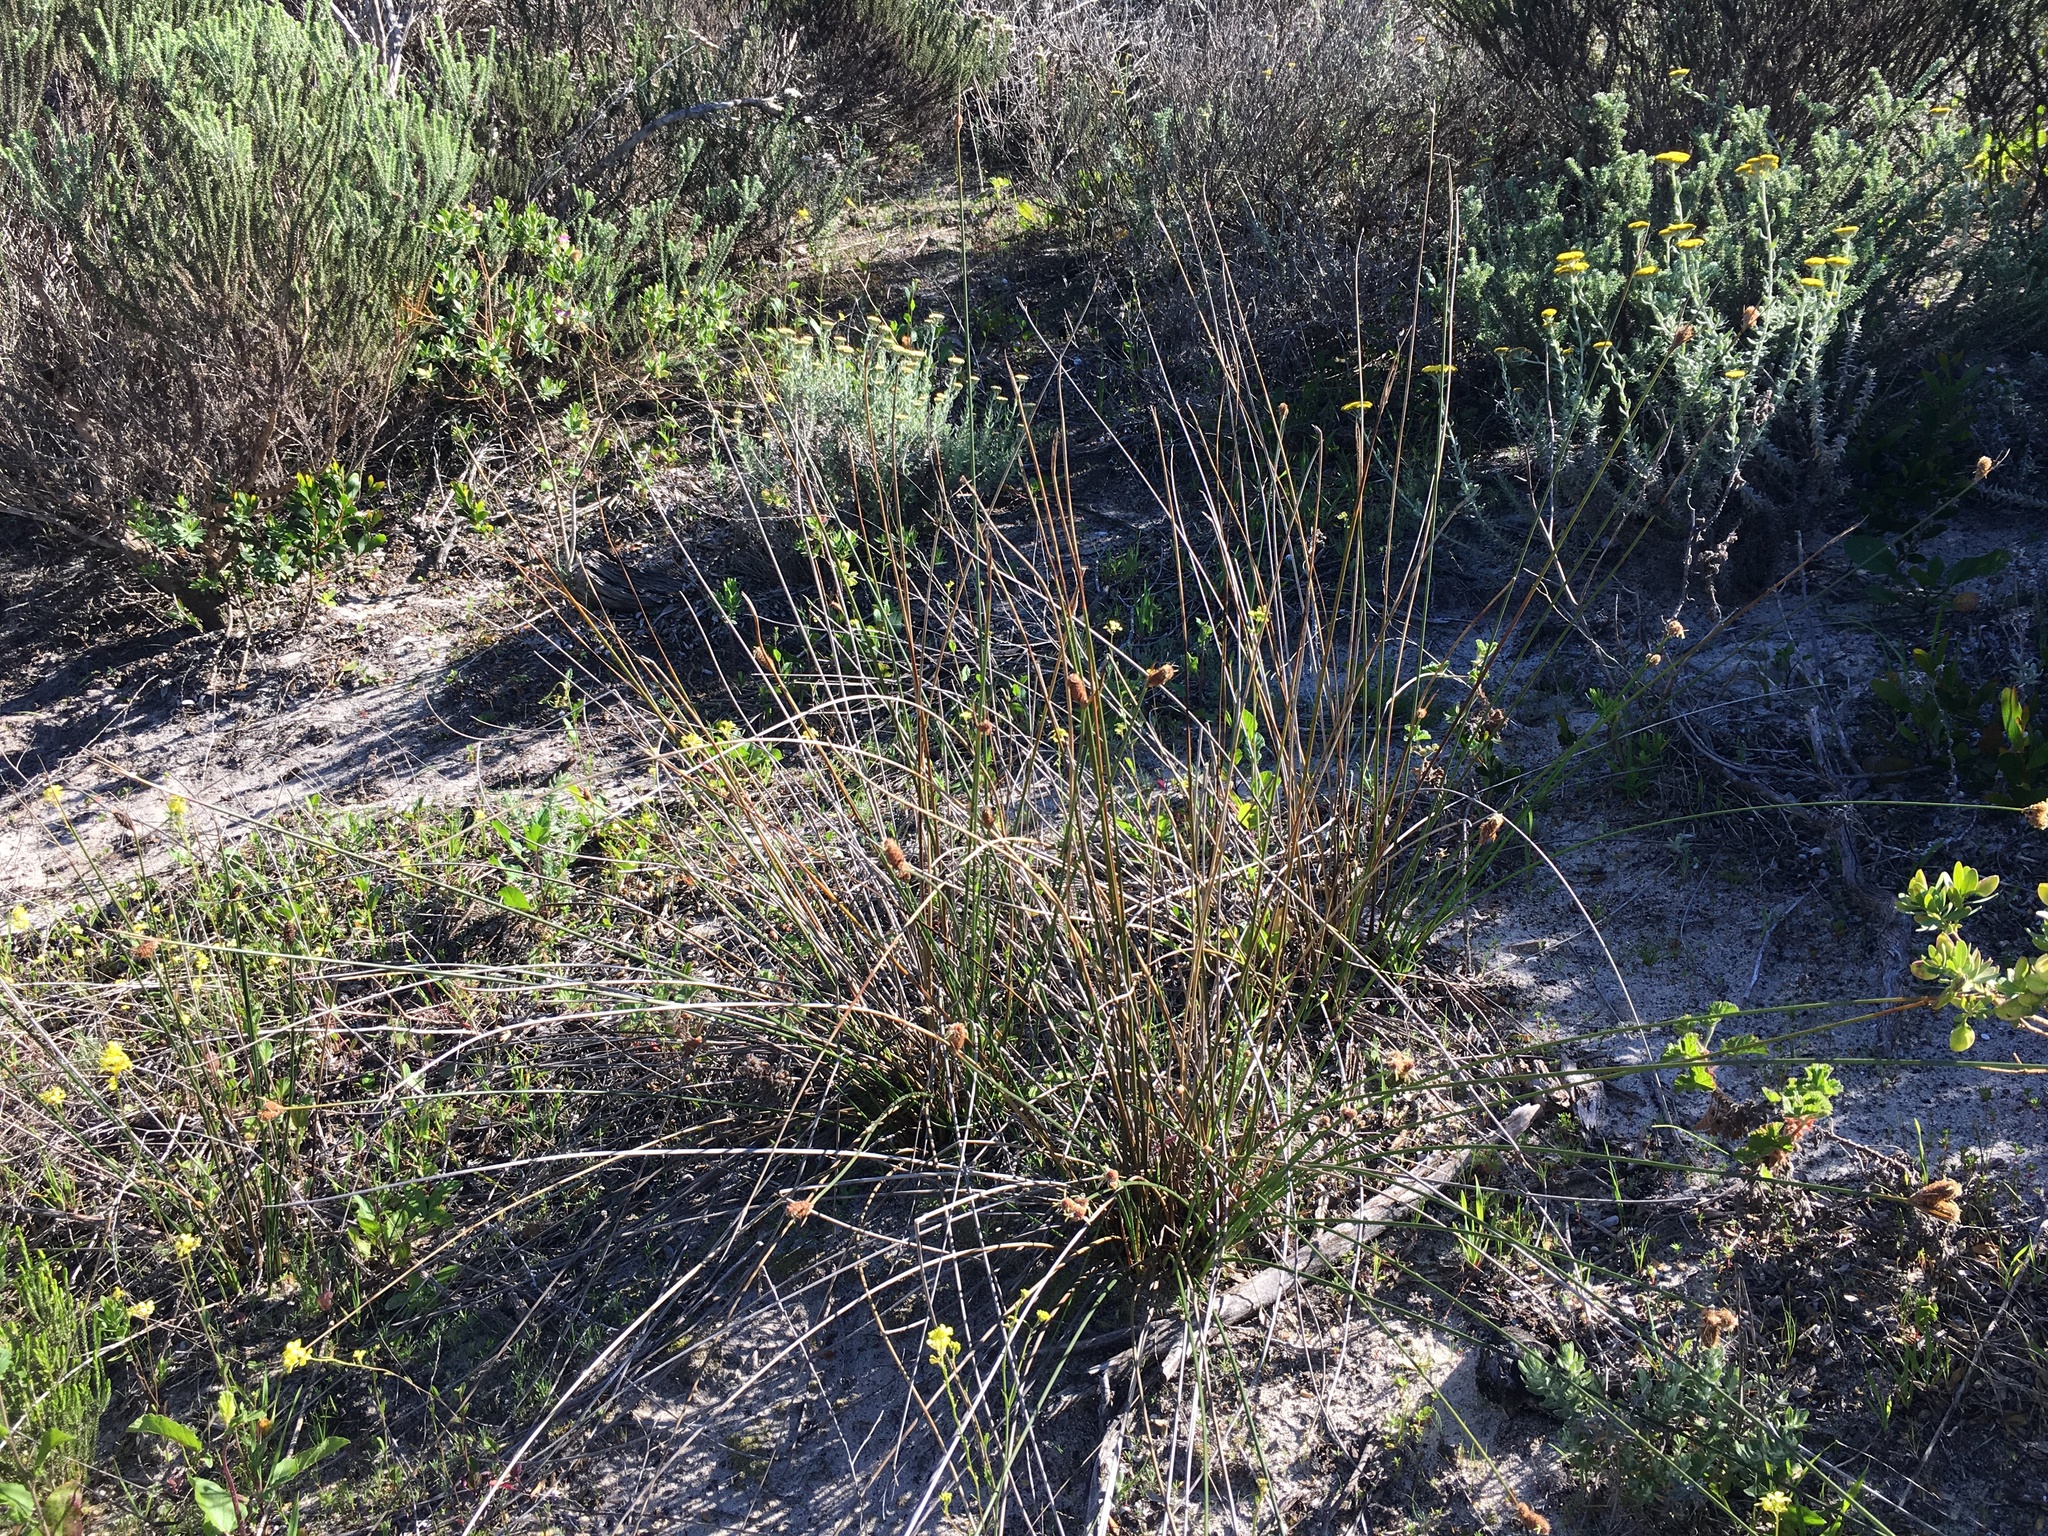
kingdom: Plantae
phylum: Tracheophyta
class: Liliopsida
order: Poales
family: Cyperaceae
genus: Hellmuthia
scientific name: Hellmuthia membranacea
